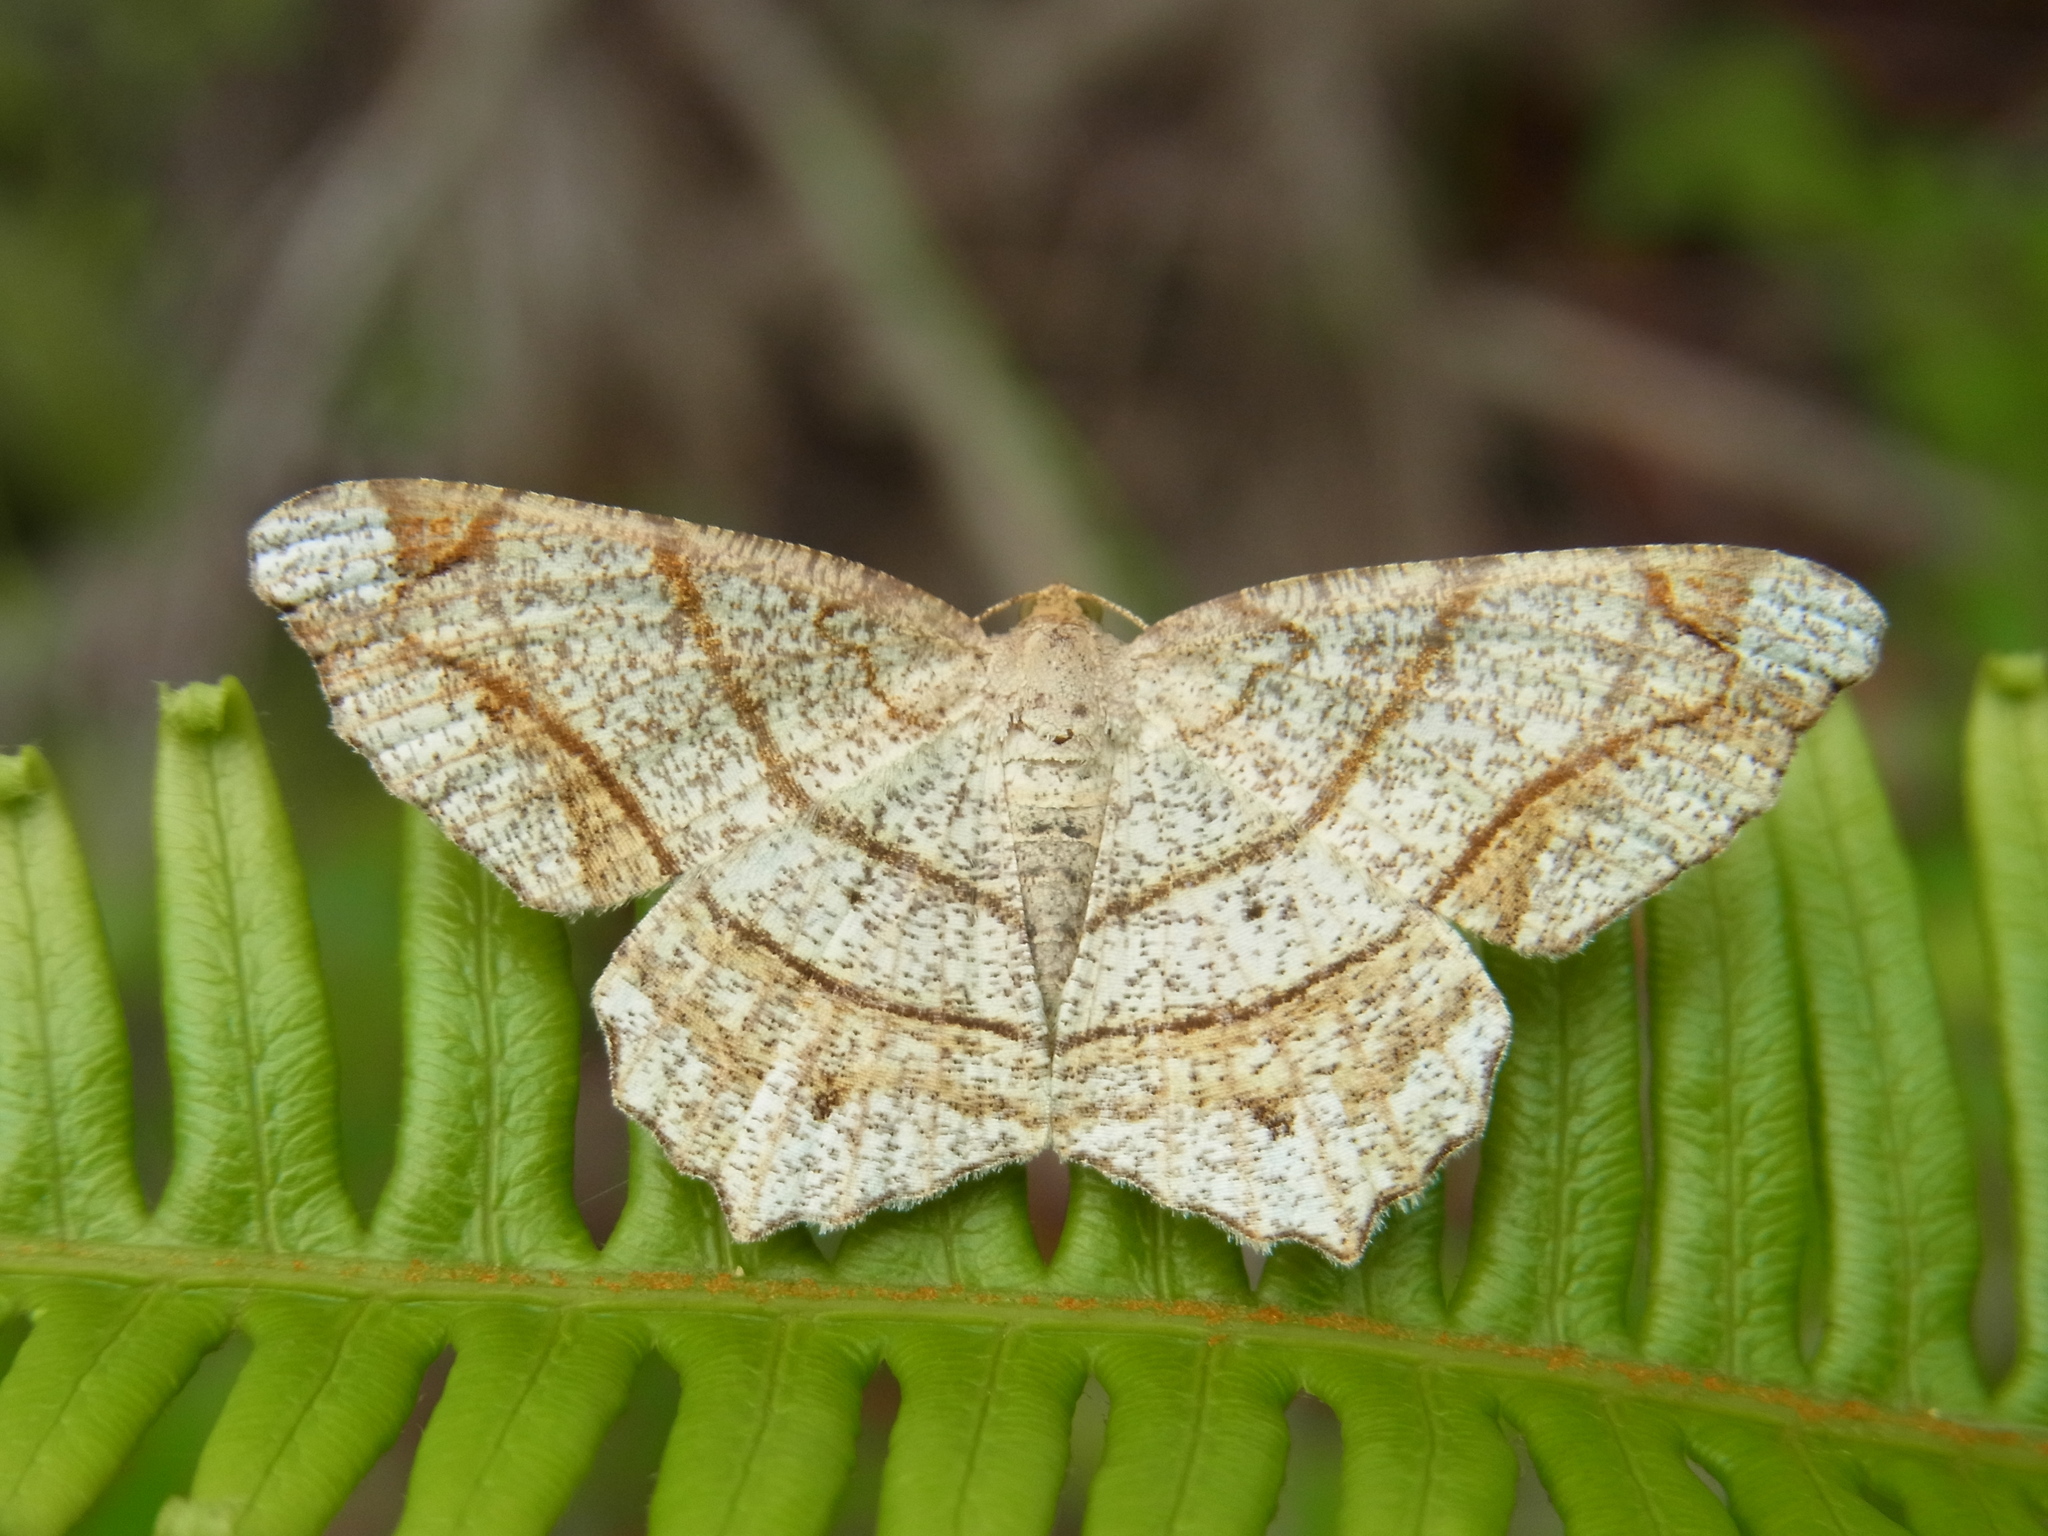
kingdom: Animalia
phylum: Arthropoda
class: Insecta
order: Lepidoptera
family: Geometridae
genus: Chiasmia
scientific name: Chiasmia defixaria
